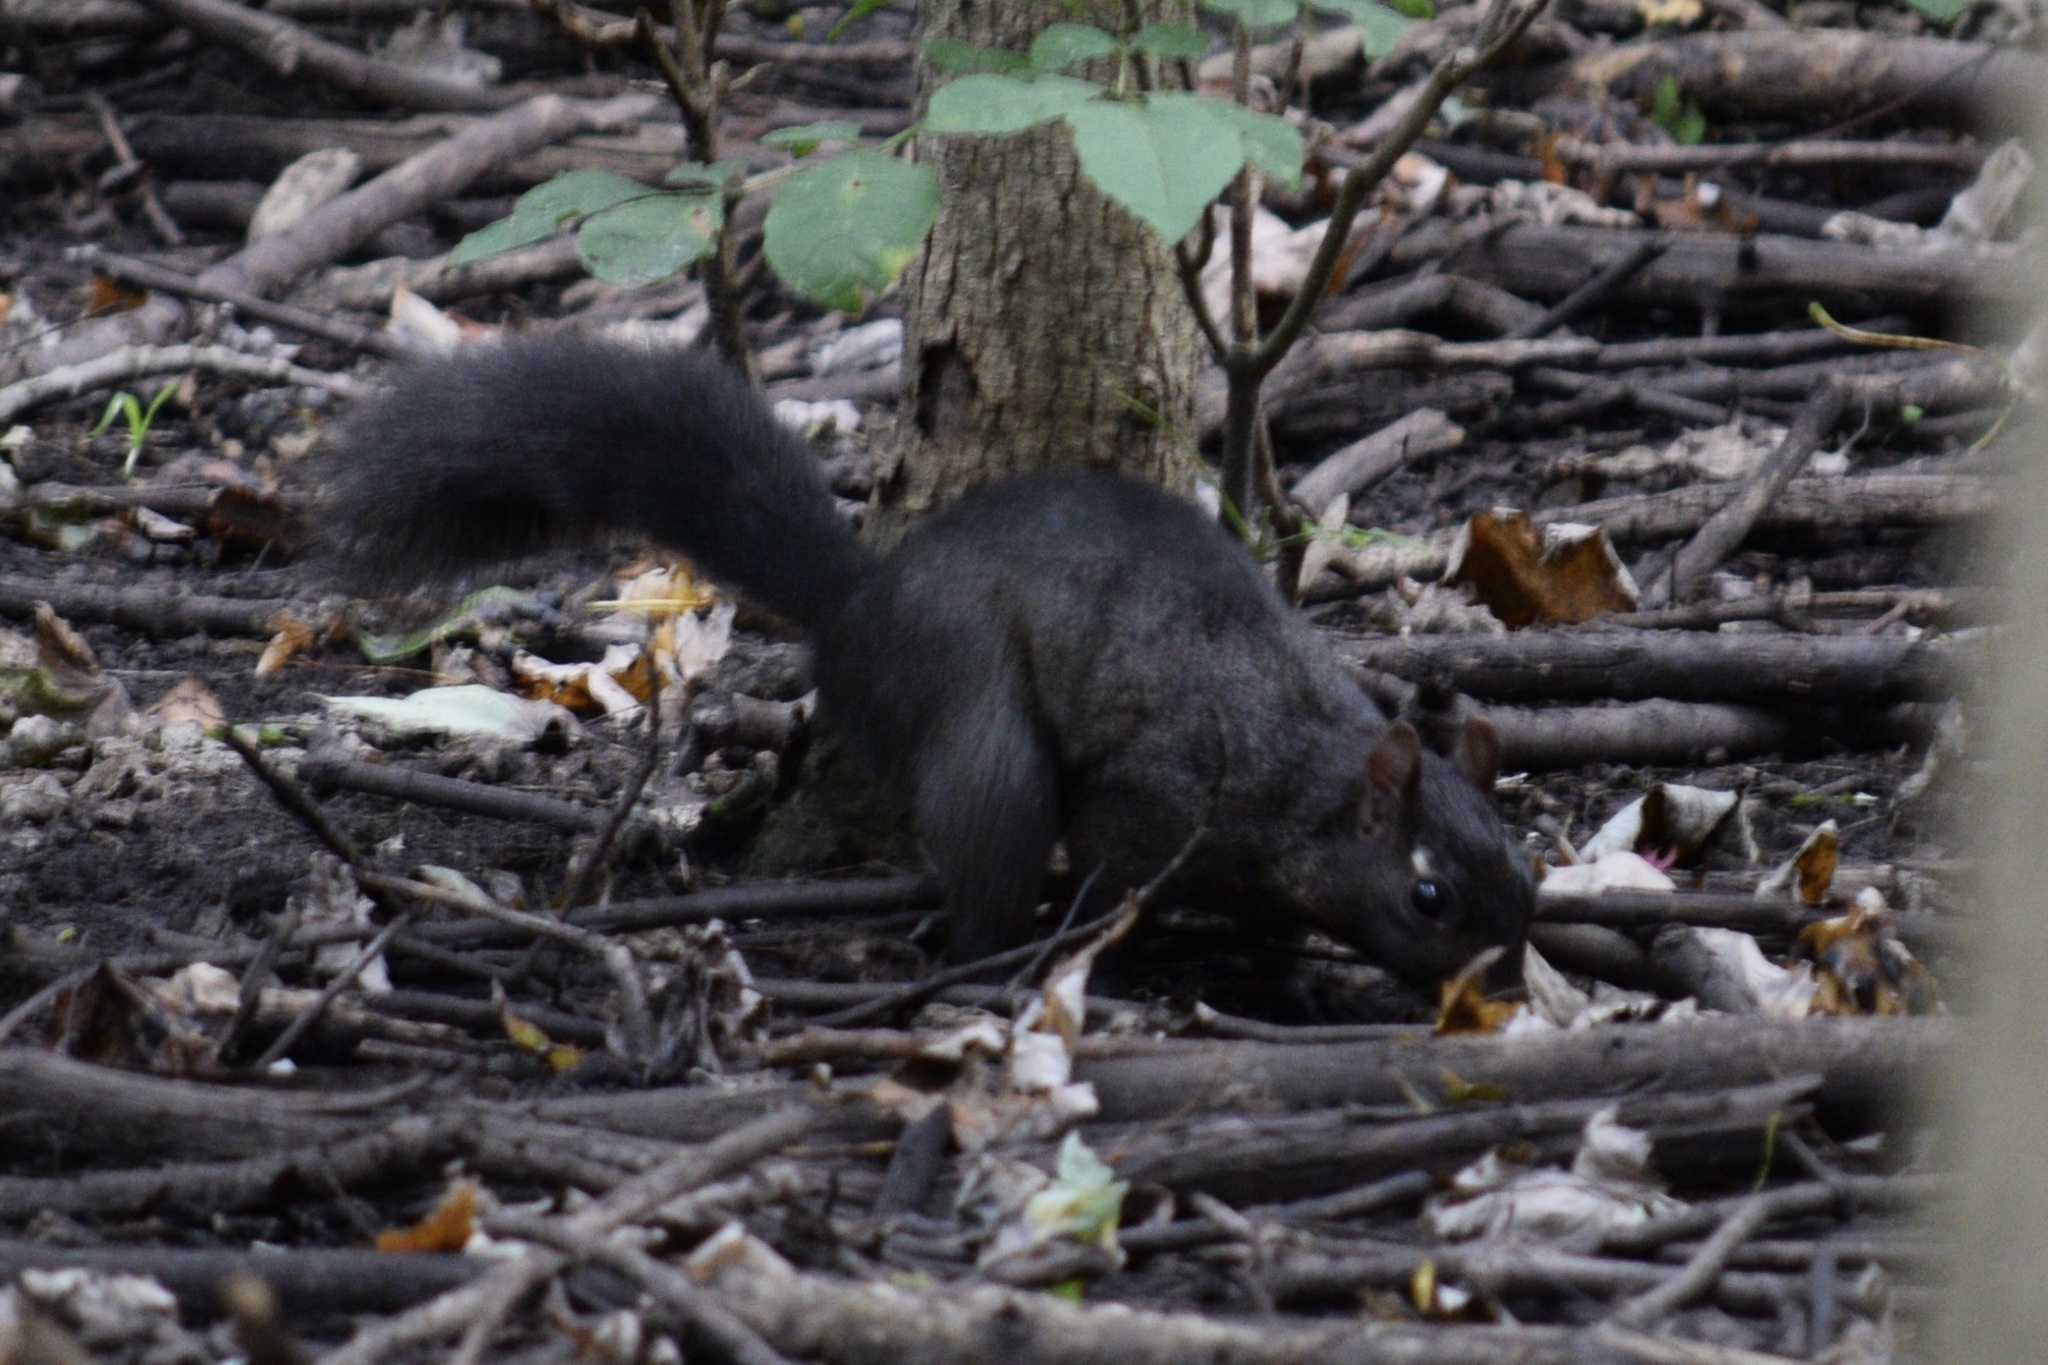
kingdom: Animalia
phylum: Chordata
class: Mammalia
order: Rodentia
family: Sciuridae
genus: Sciurus
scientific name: Sciurus carolinensis
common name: Eastern gray squirrel
